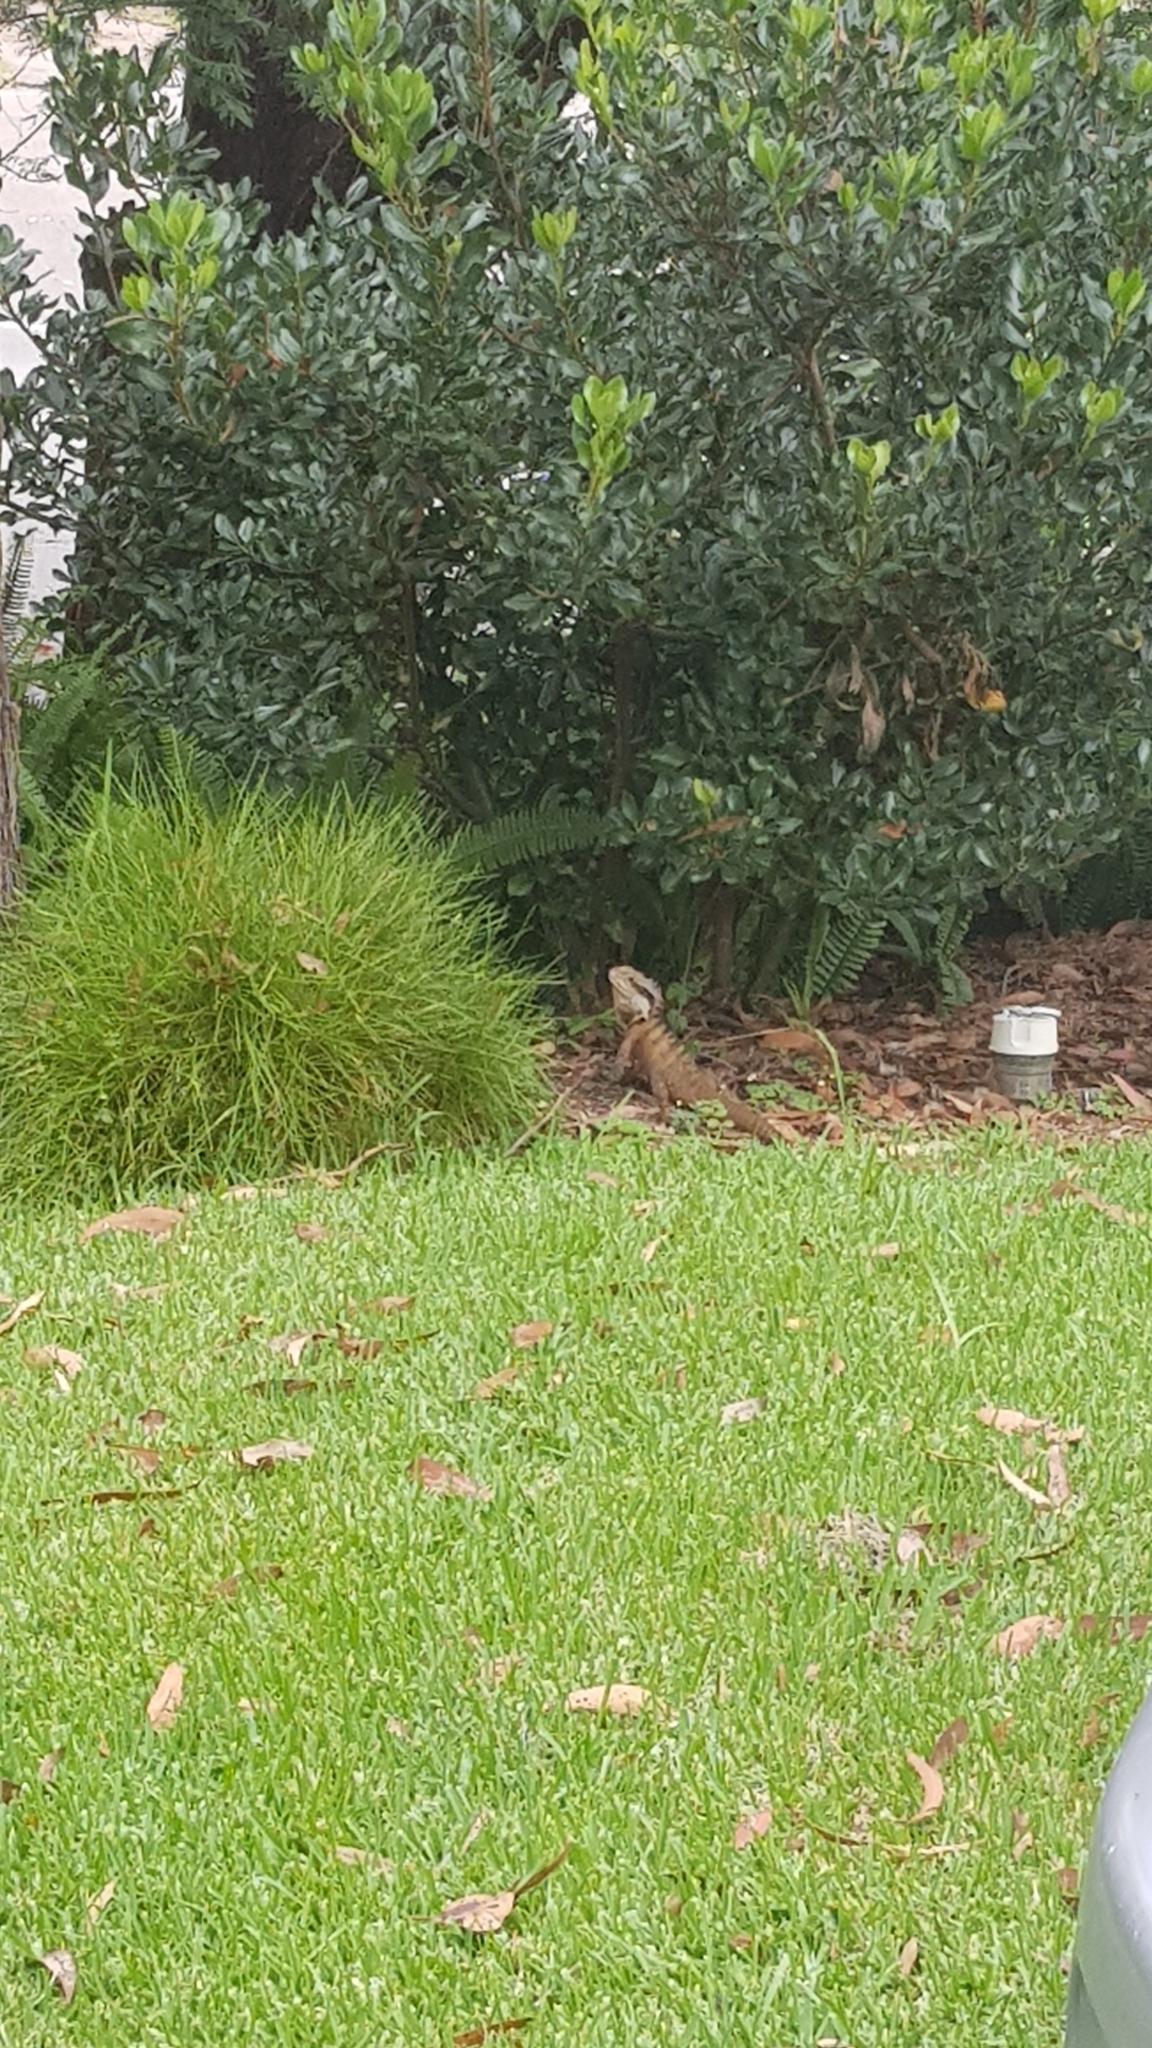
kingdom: Animalia
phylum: Chordata
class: Squamata
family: Agamidae
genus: Intellagama
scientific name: Intellagama lesueurii
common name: Eastern water dragon
